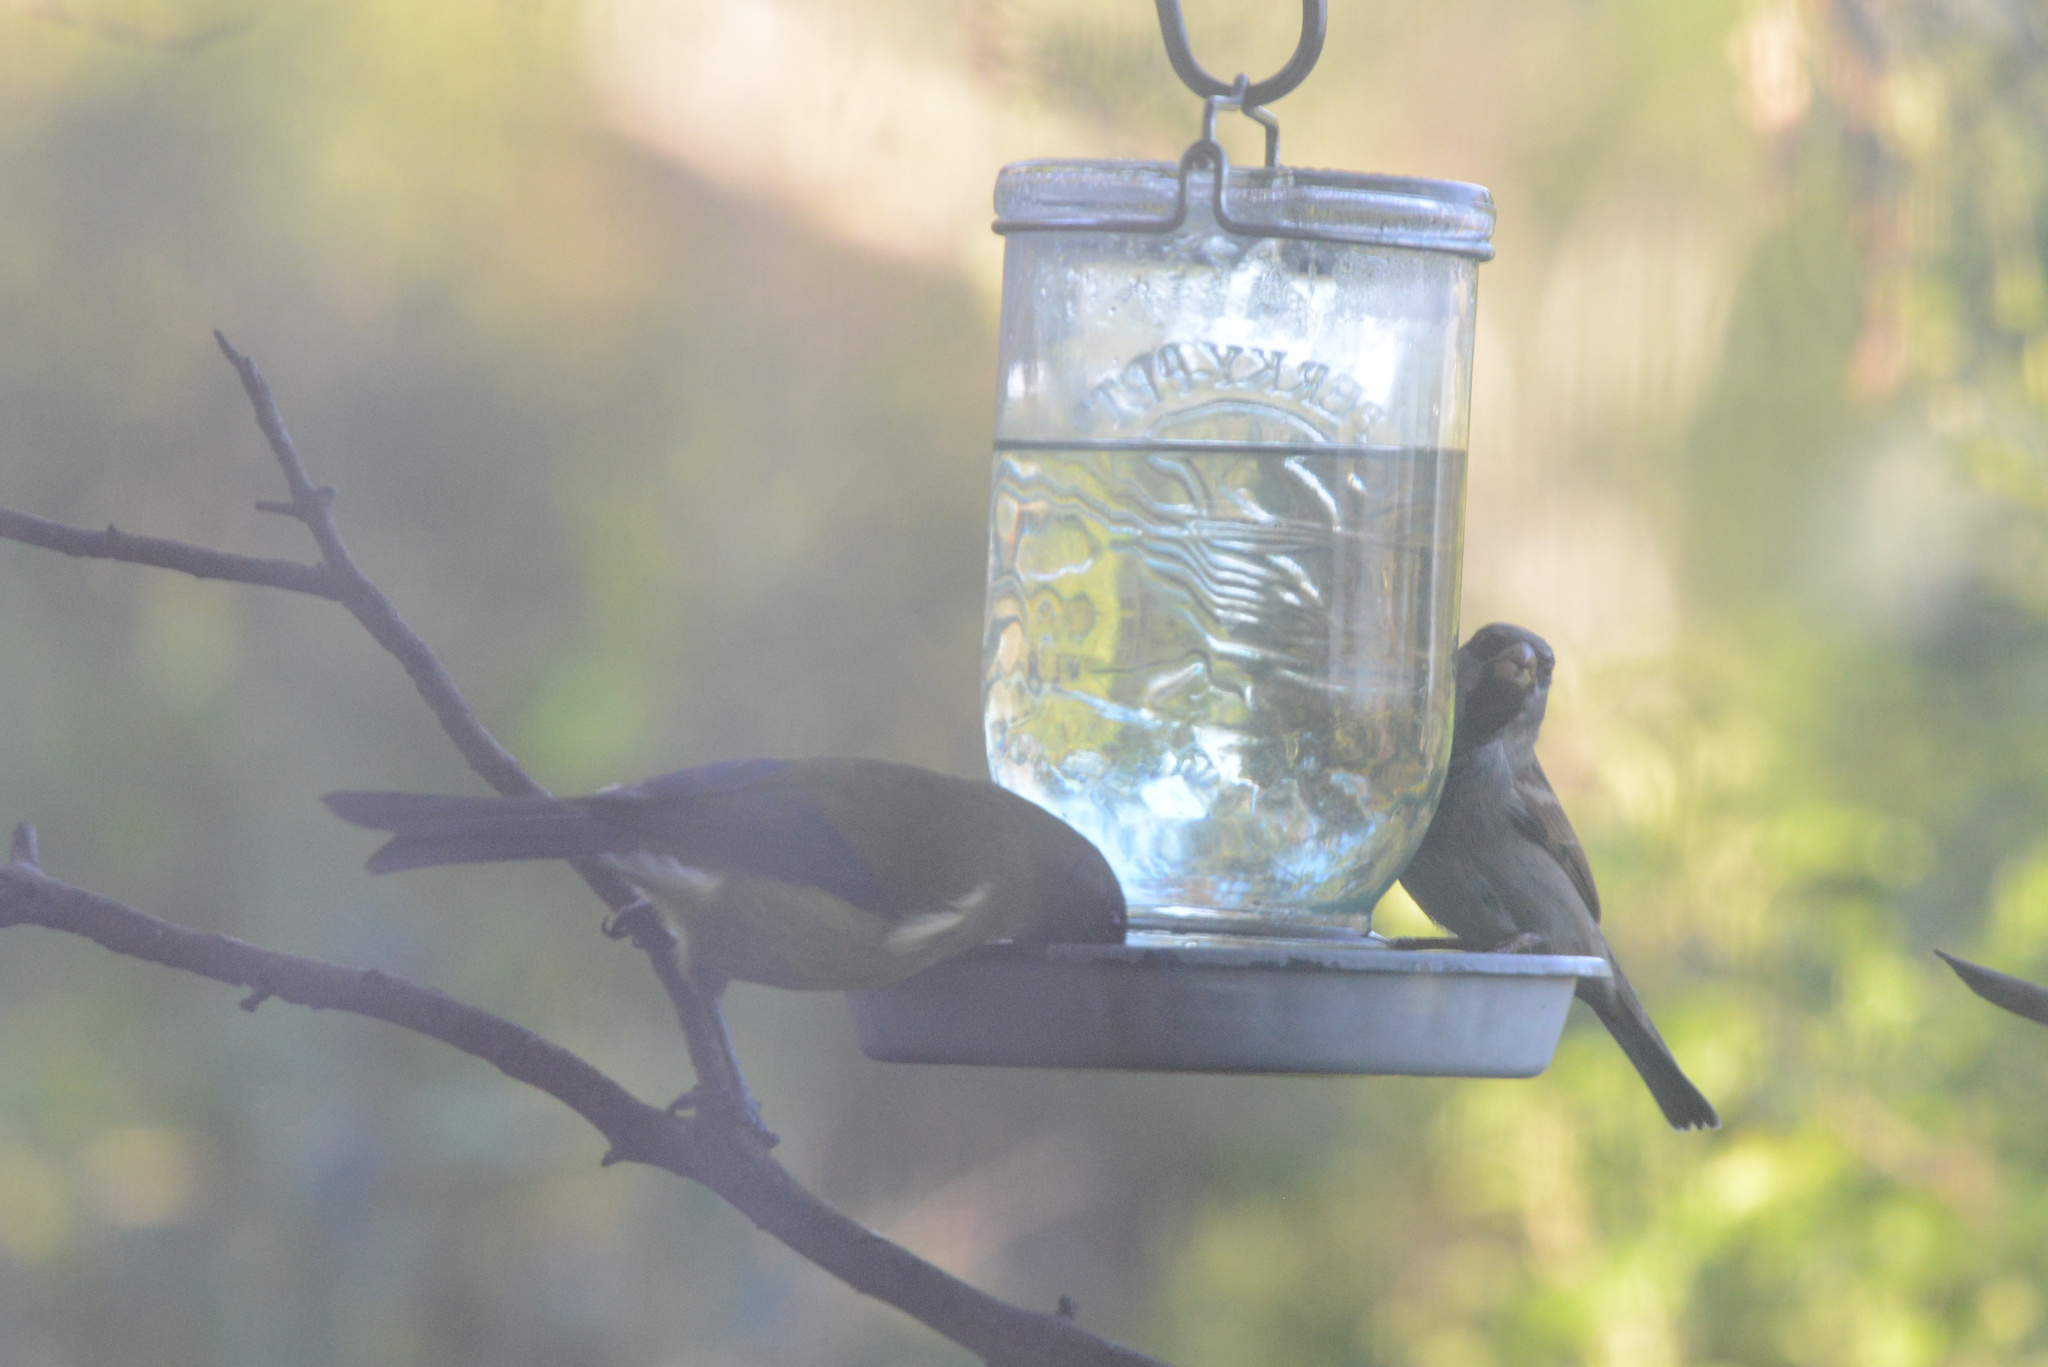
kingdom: Animalia
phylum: Chordata
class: Aves
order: Passeriformes
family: Meliphagidae
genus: Anthornis
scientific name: Anthornis melanura
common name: New zealand bellbird
